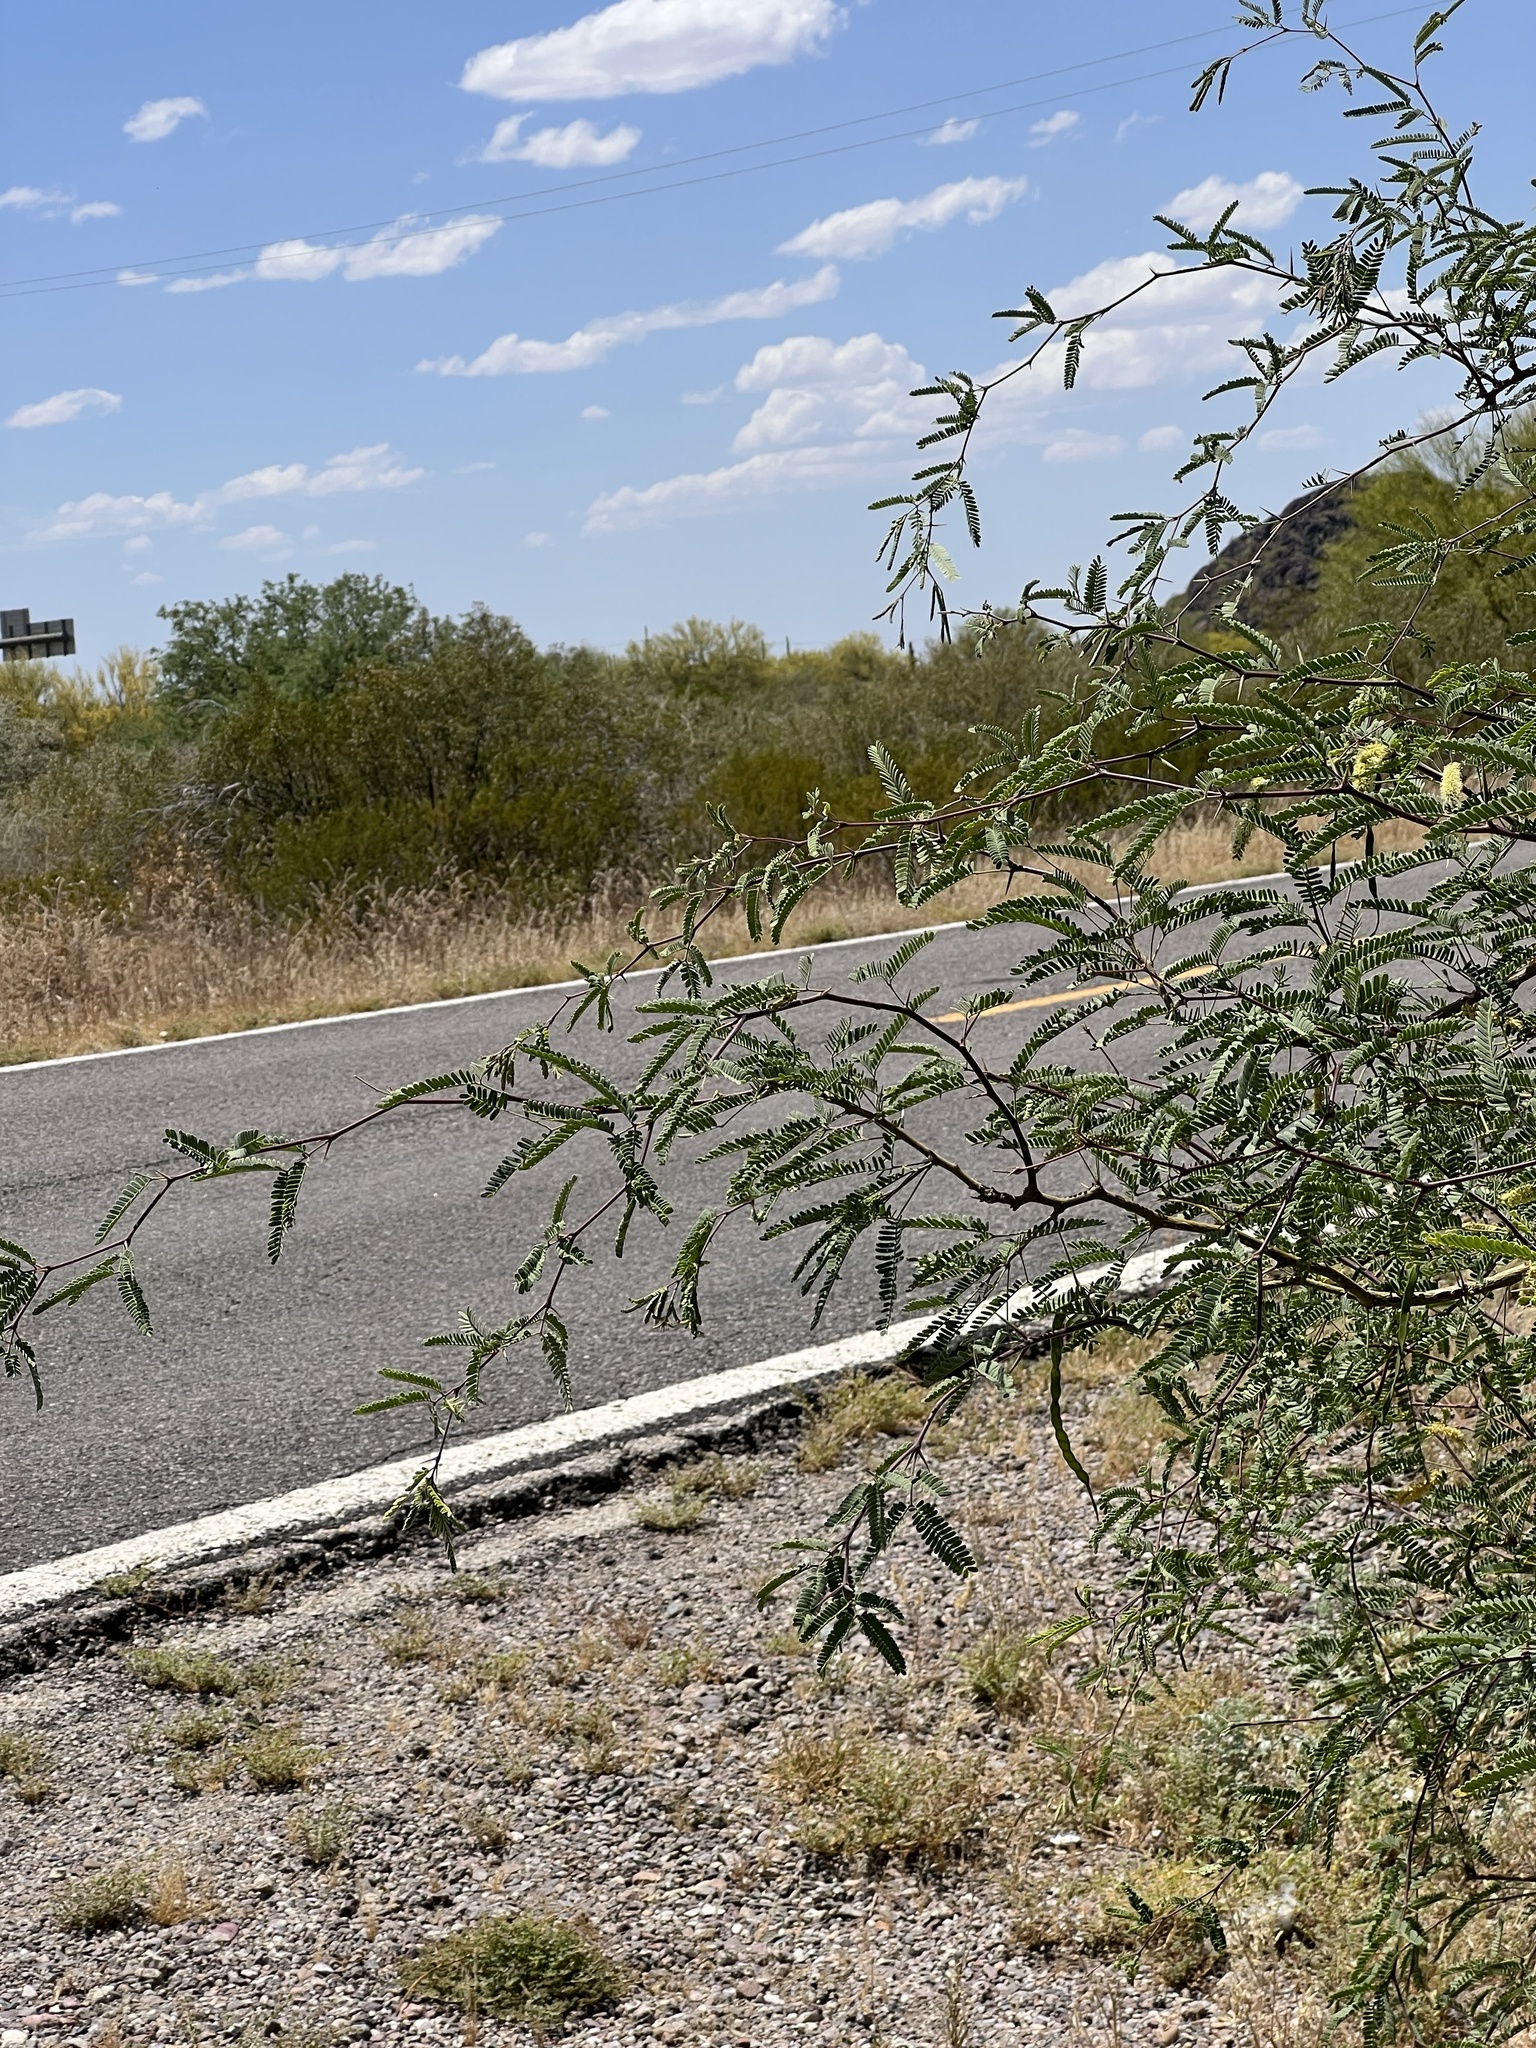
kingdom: Plantae
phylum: Tracheophyta
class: Magnoliopsida
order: Fabales
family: Fabaceae
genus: Prosopis
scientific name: Prosopis velutina
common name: Velvet mesquite
